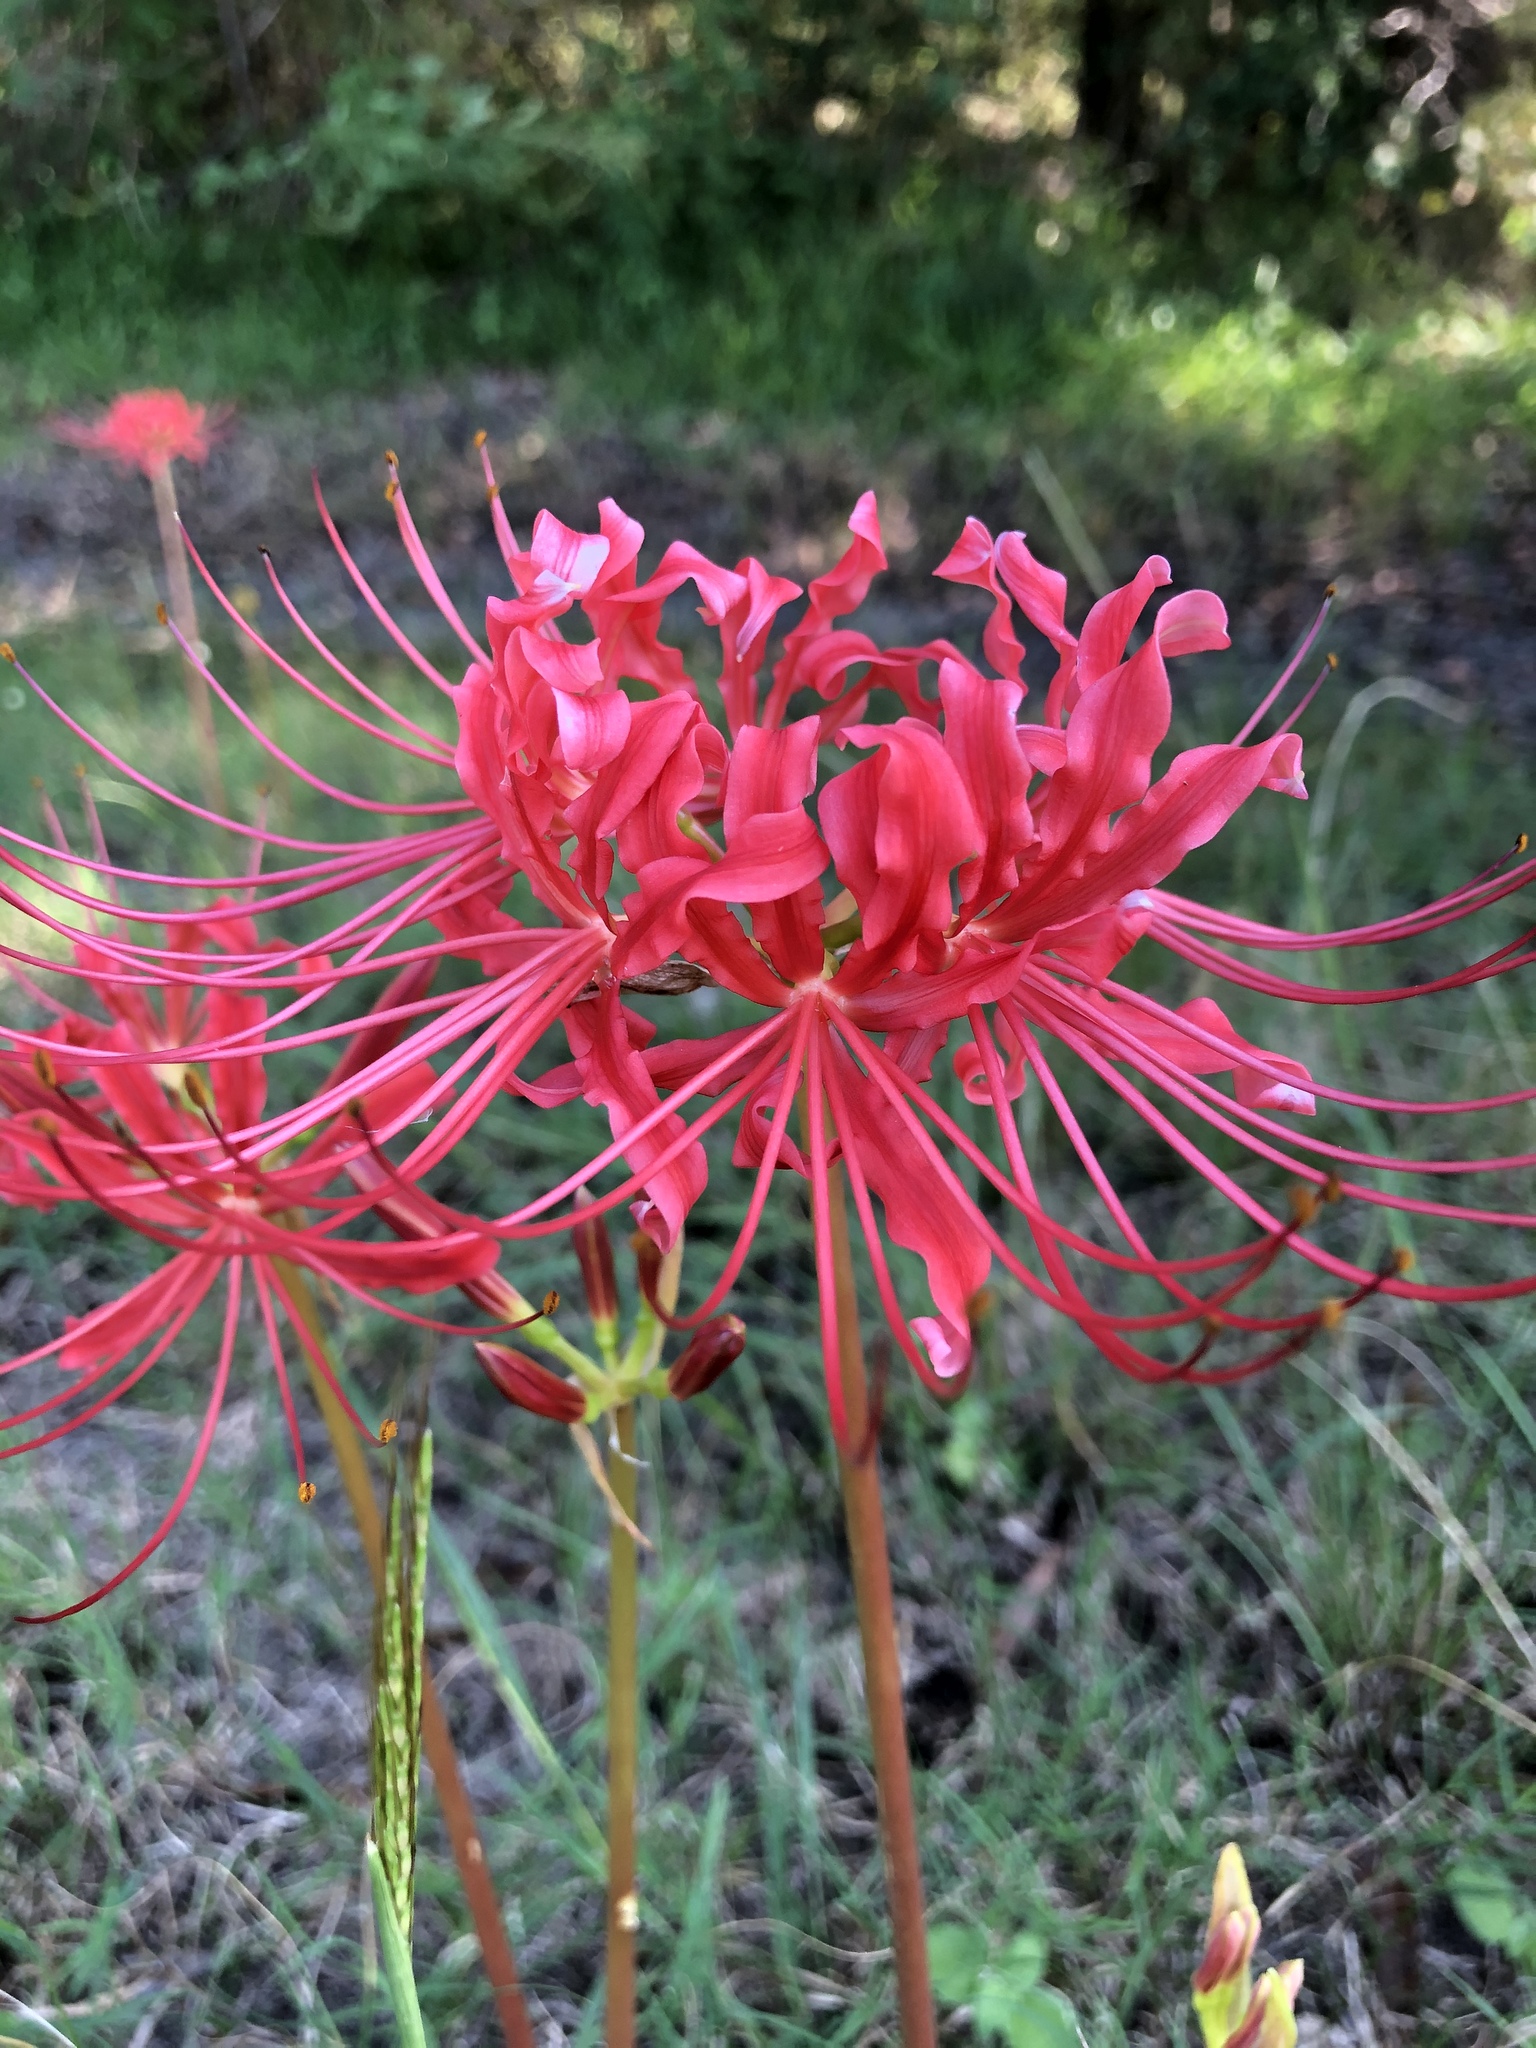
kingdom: Plantae
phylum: Tracheophyta
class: Liliopsida
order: Asparagales
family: Amaryllidaceae
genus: Lycoris
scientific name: Lycoris radiata
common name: Red spider lily
